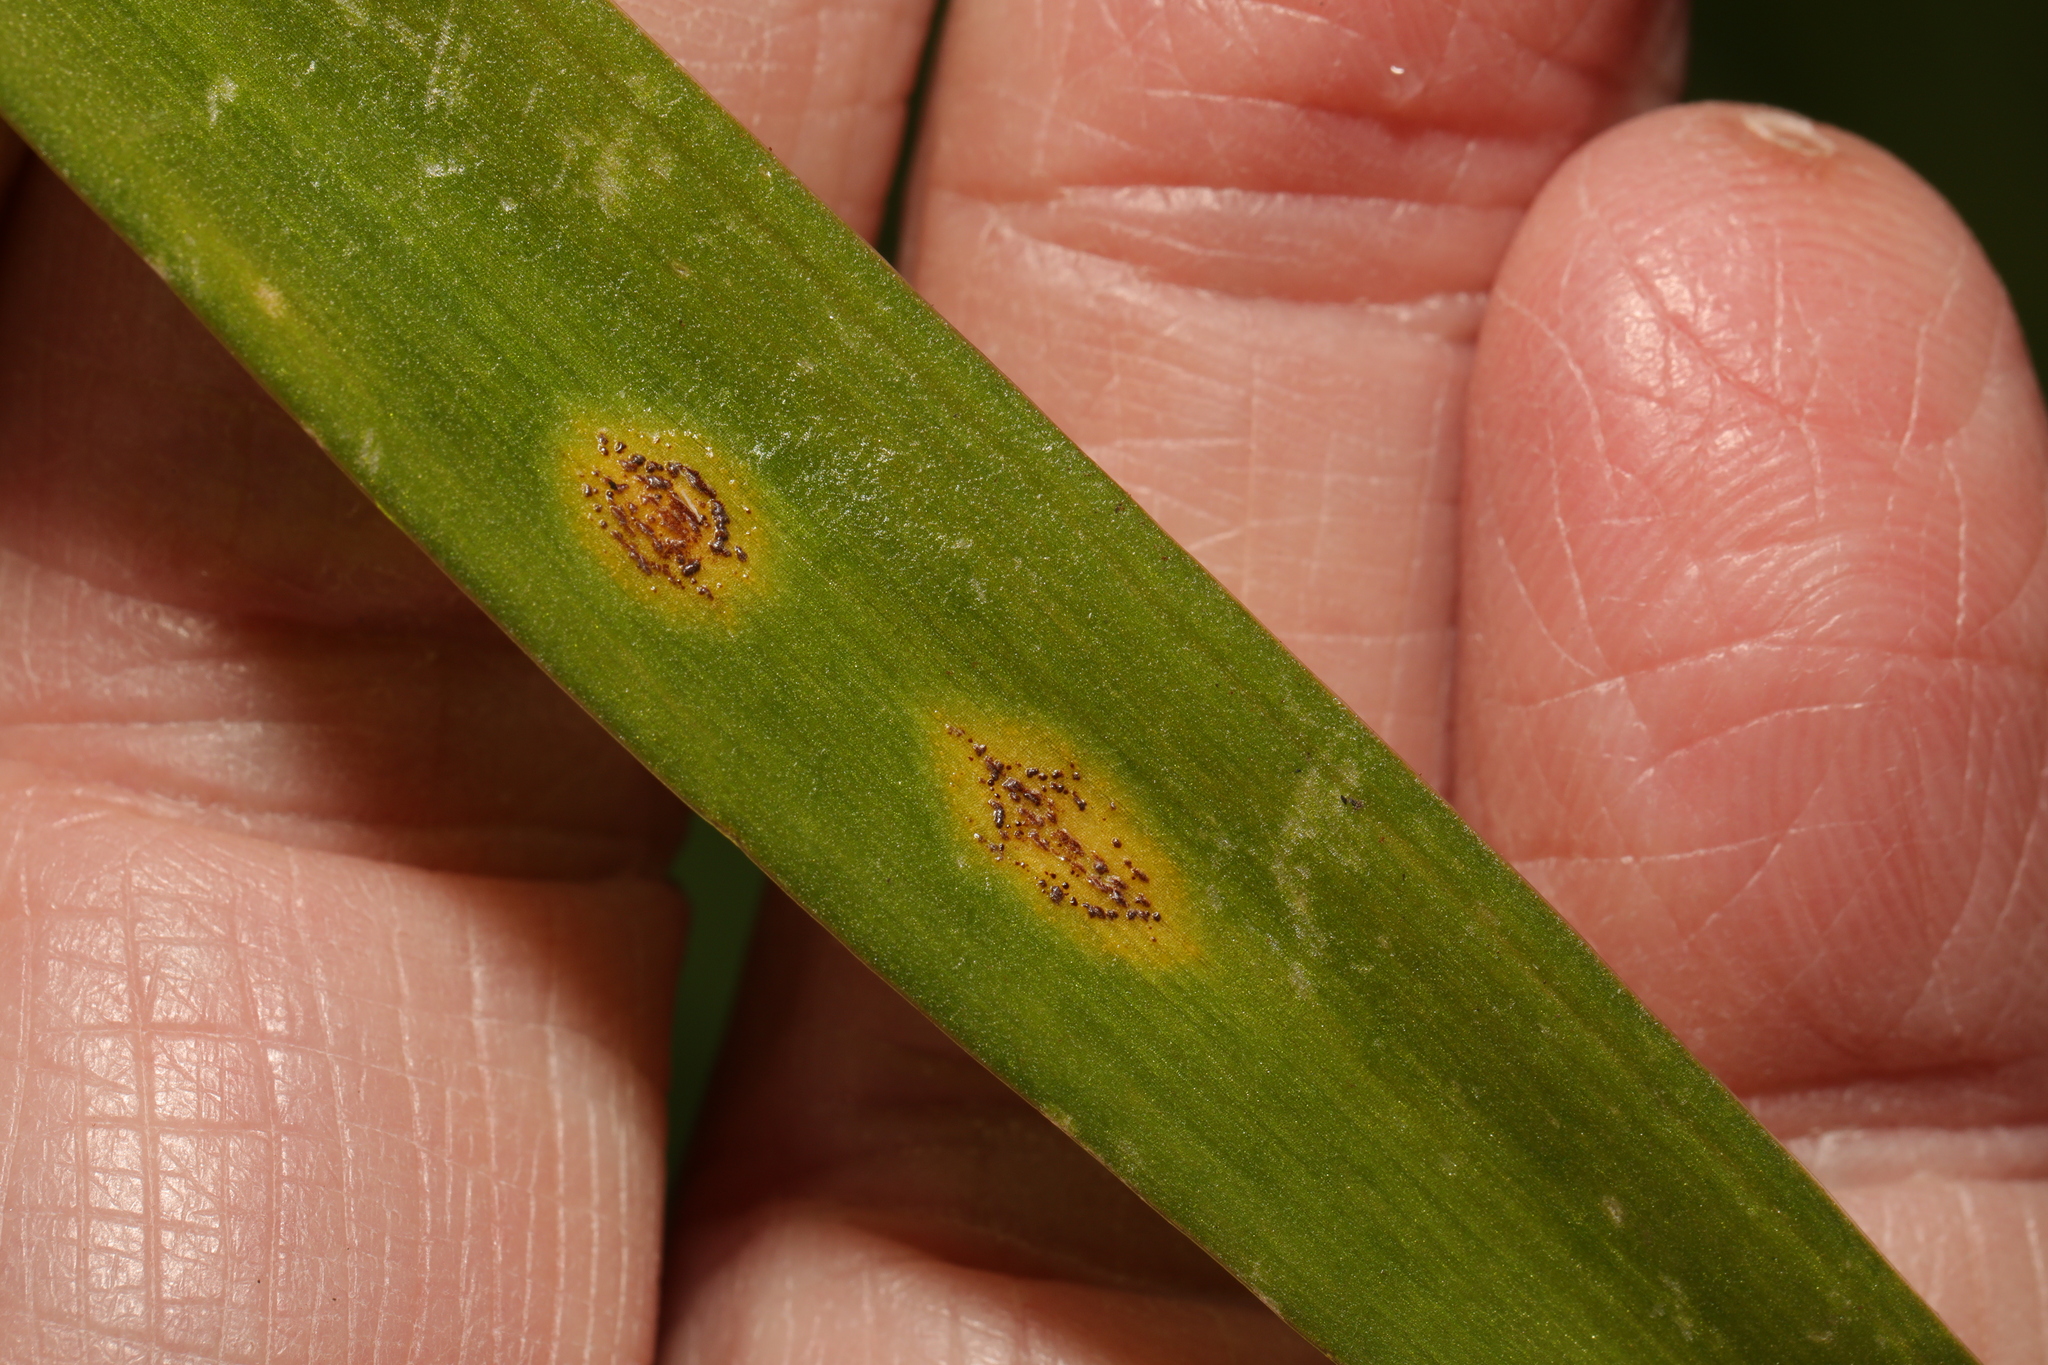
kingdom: Fungi
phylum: Basidiomycota
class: Pucciniomycetes
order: Pucciniales
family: Pucciniaceae
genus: Uromyces
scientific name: Uromyces hyacinthi
